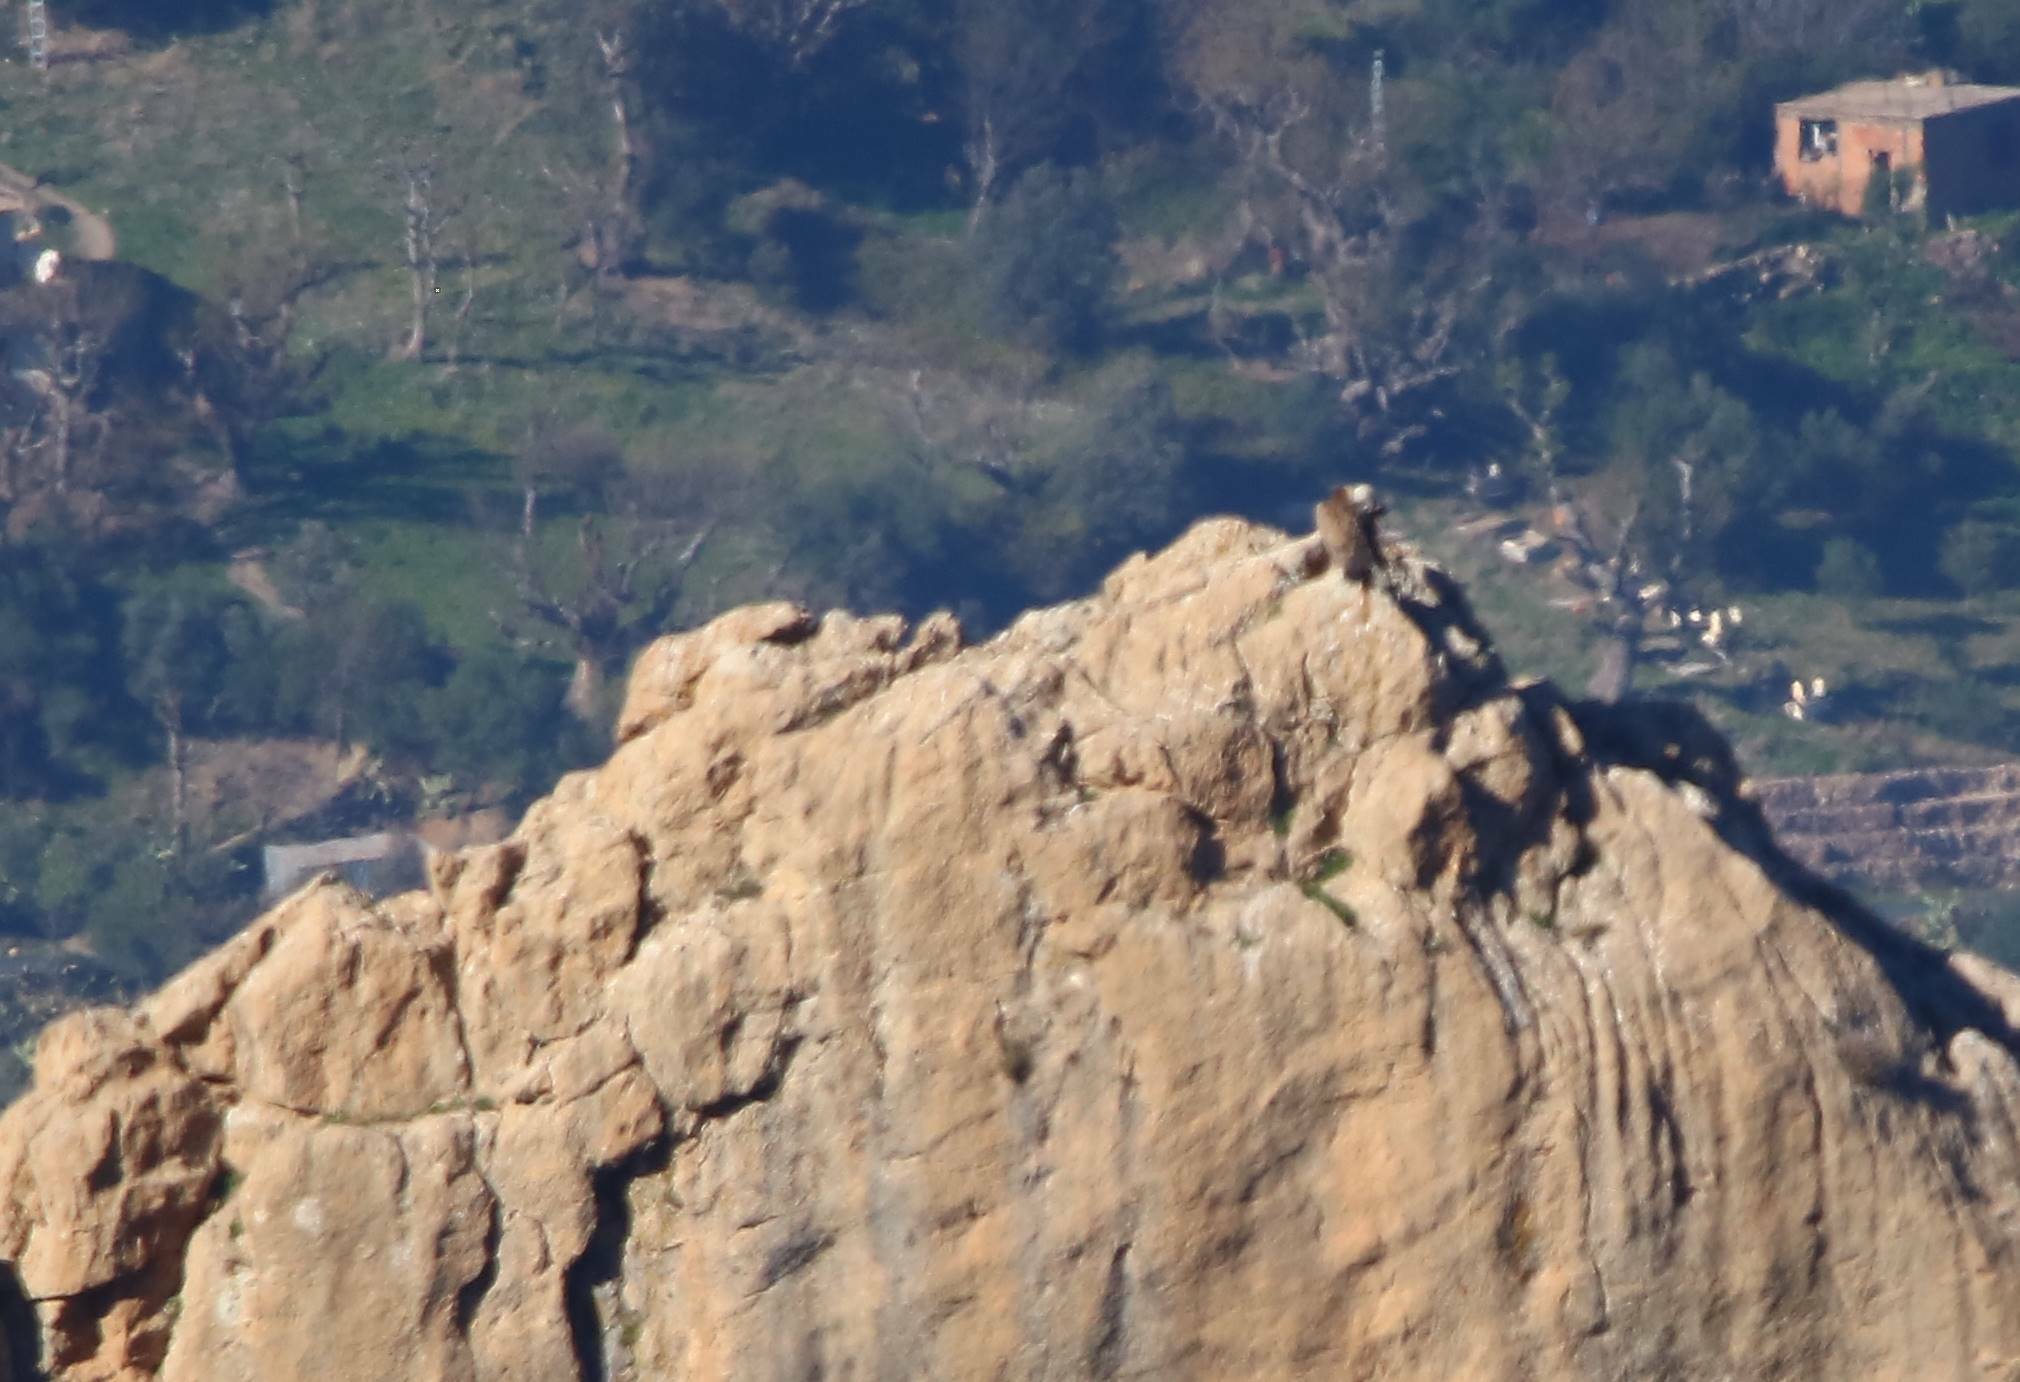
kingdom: Animalia
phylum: Chordata
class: Aves
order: Accipitriformes
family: Accipitridae
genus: Gyps
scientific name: Gyps fulvus
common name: Griffon vulture
